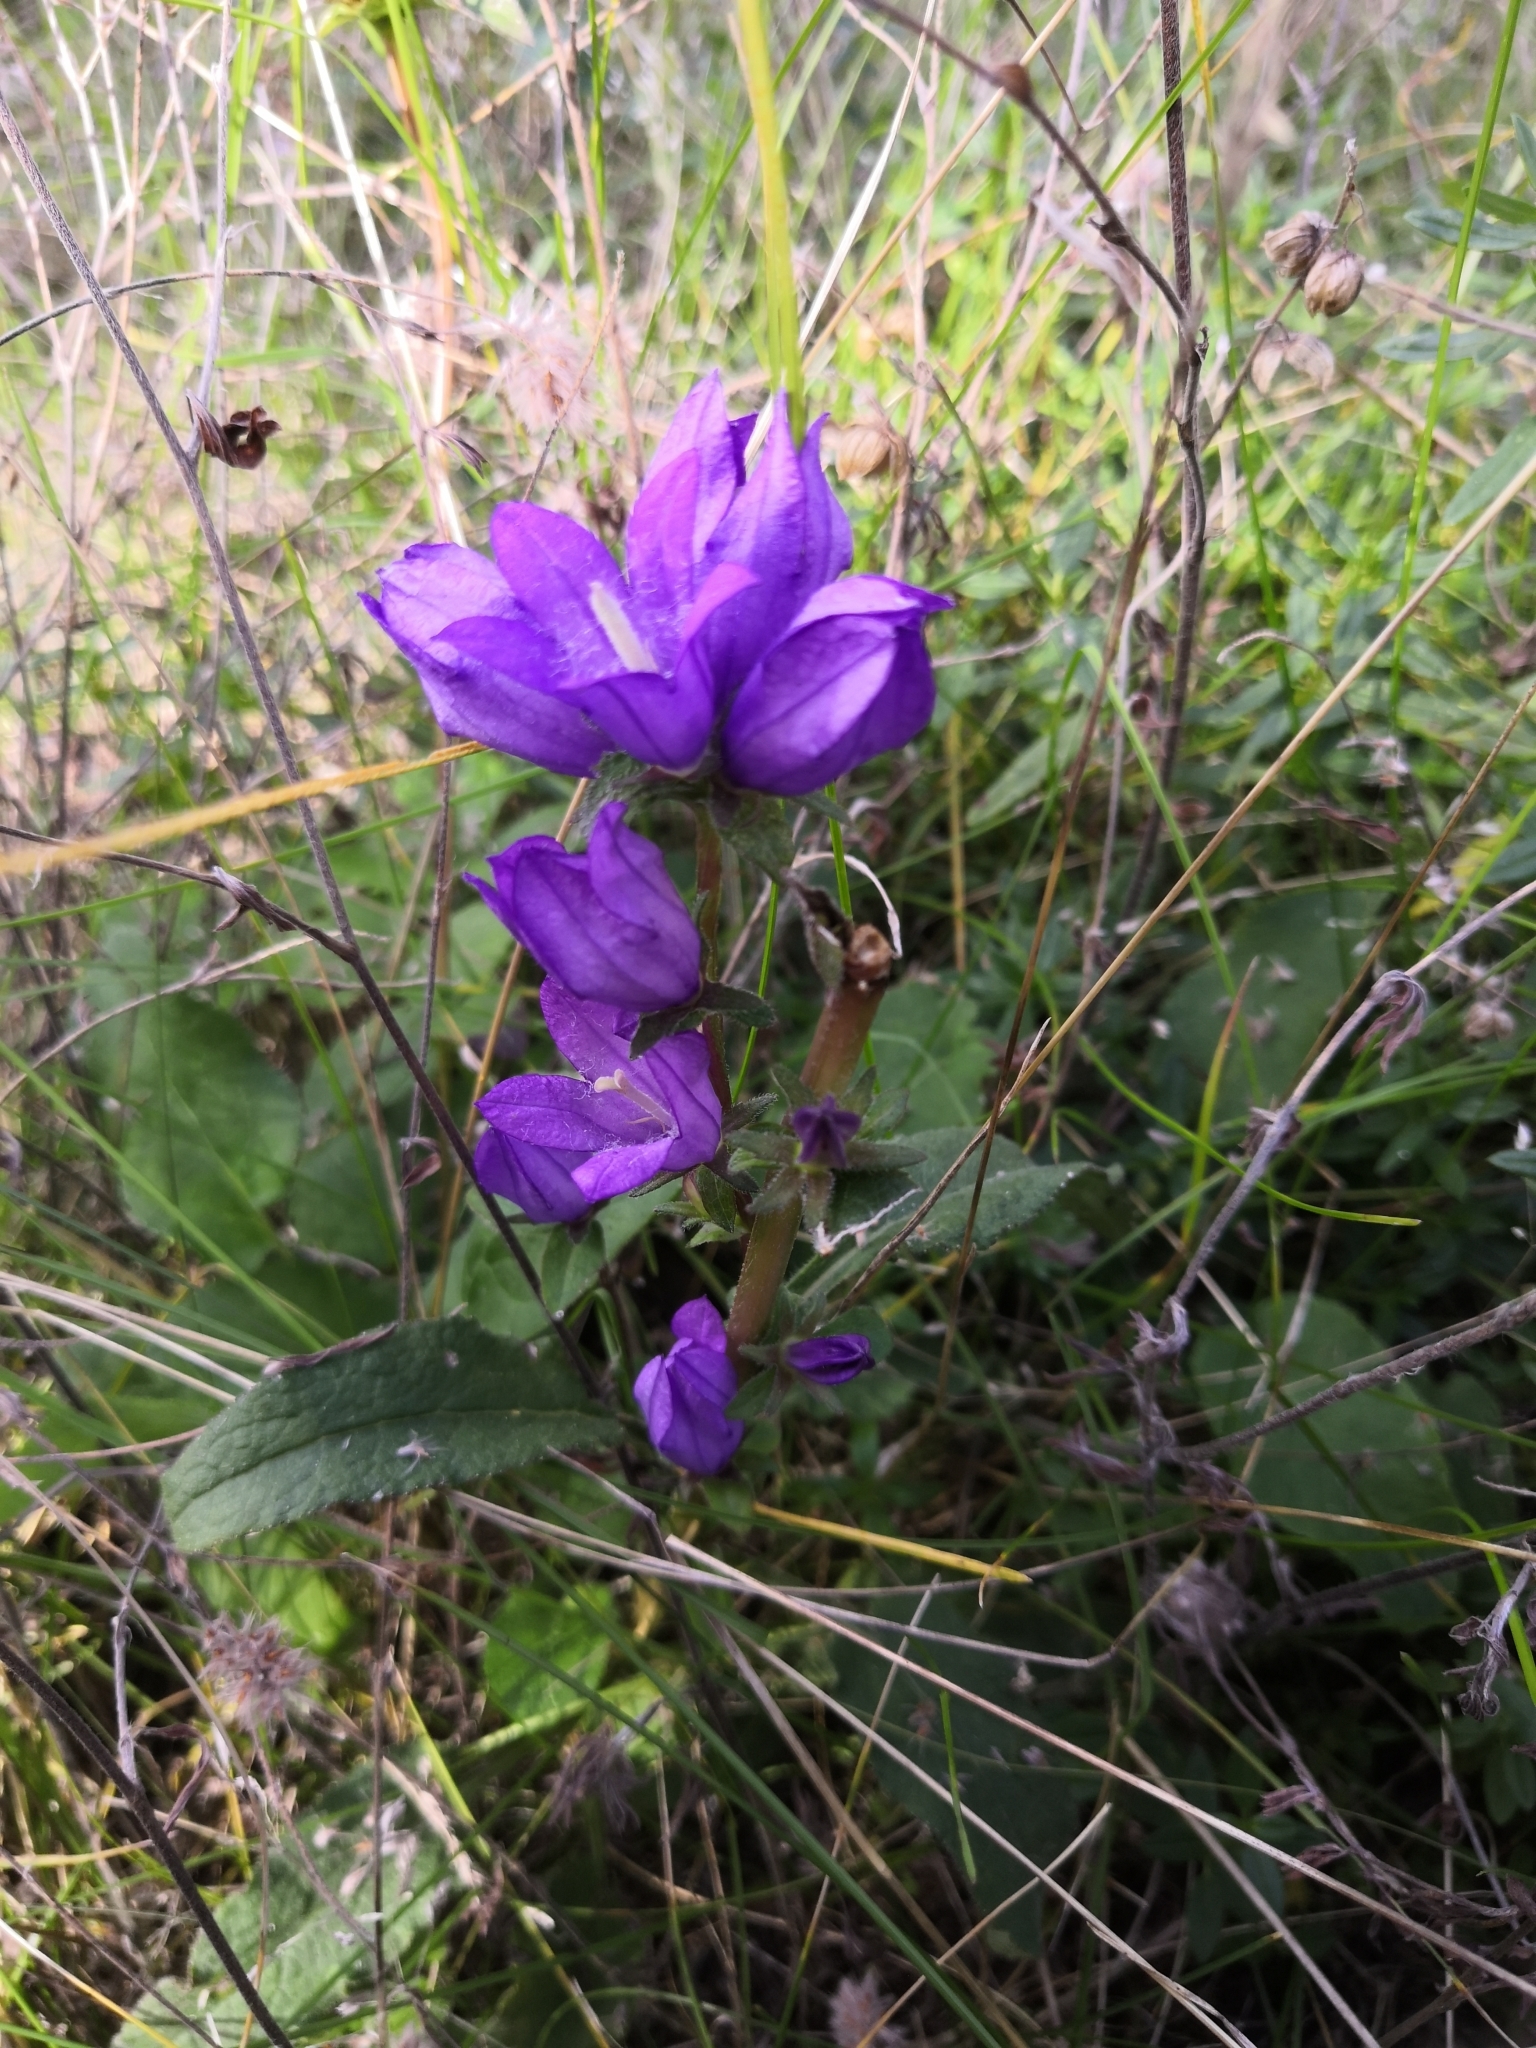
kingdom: Plantae
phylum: Tracheophyta
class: Magnoliopsida
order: Asterales
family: Campanulaceae
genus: Campanula
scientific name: Campanula glomerata
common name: Clustered bellflower
